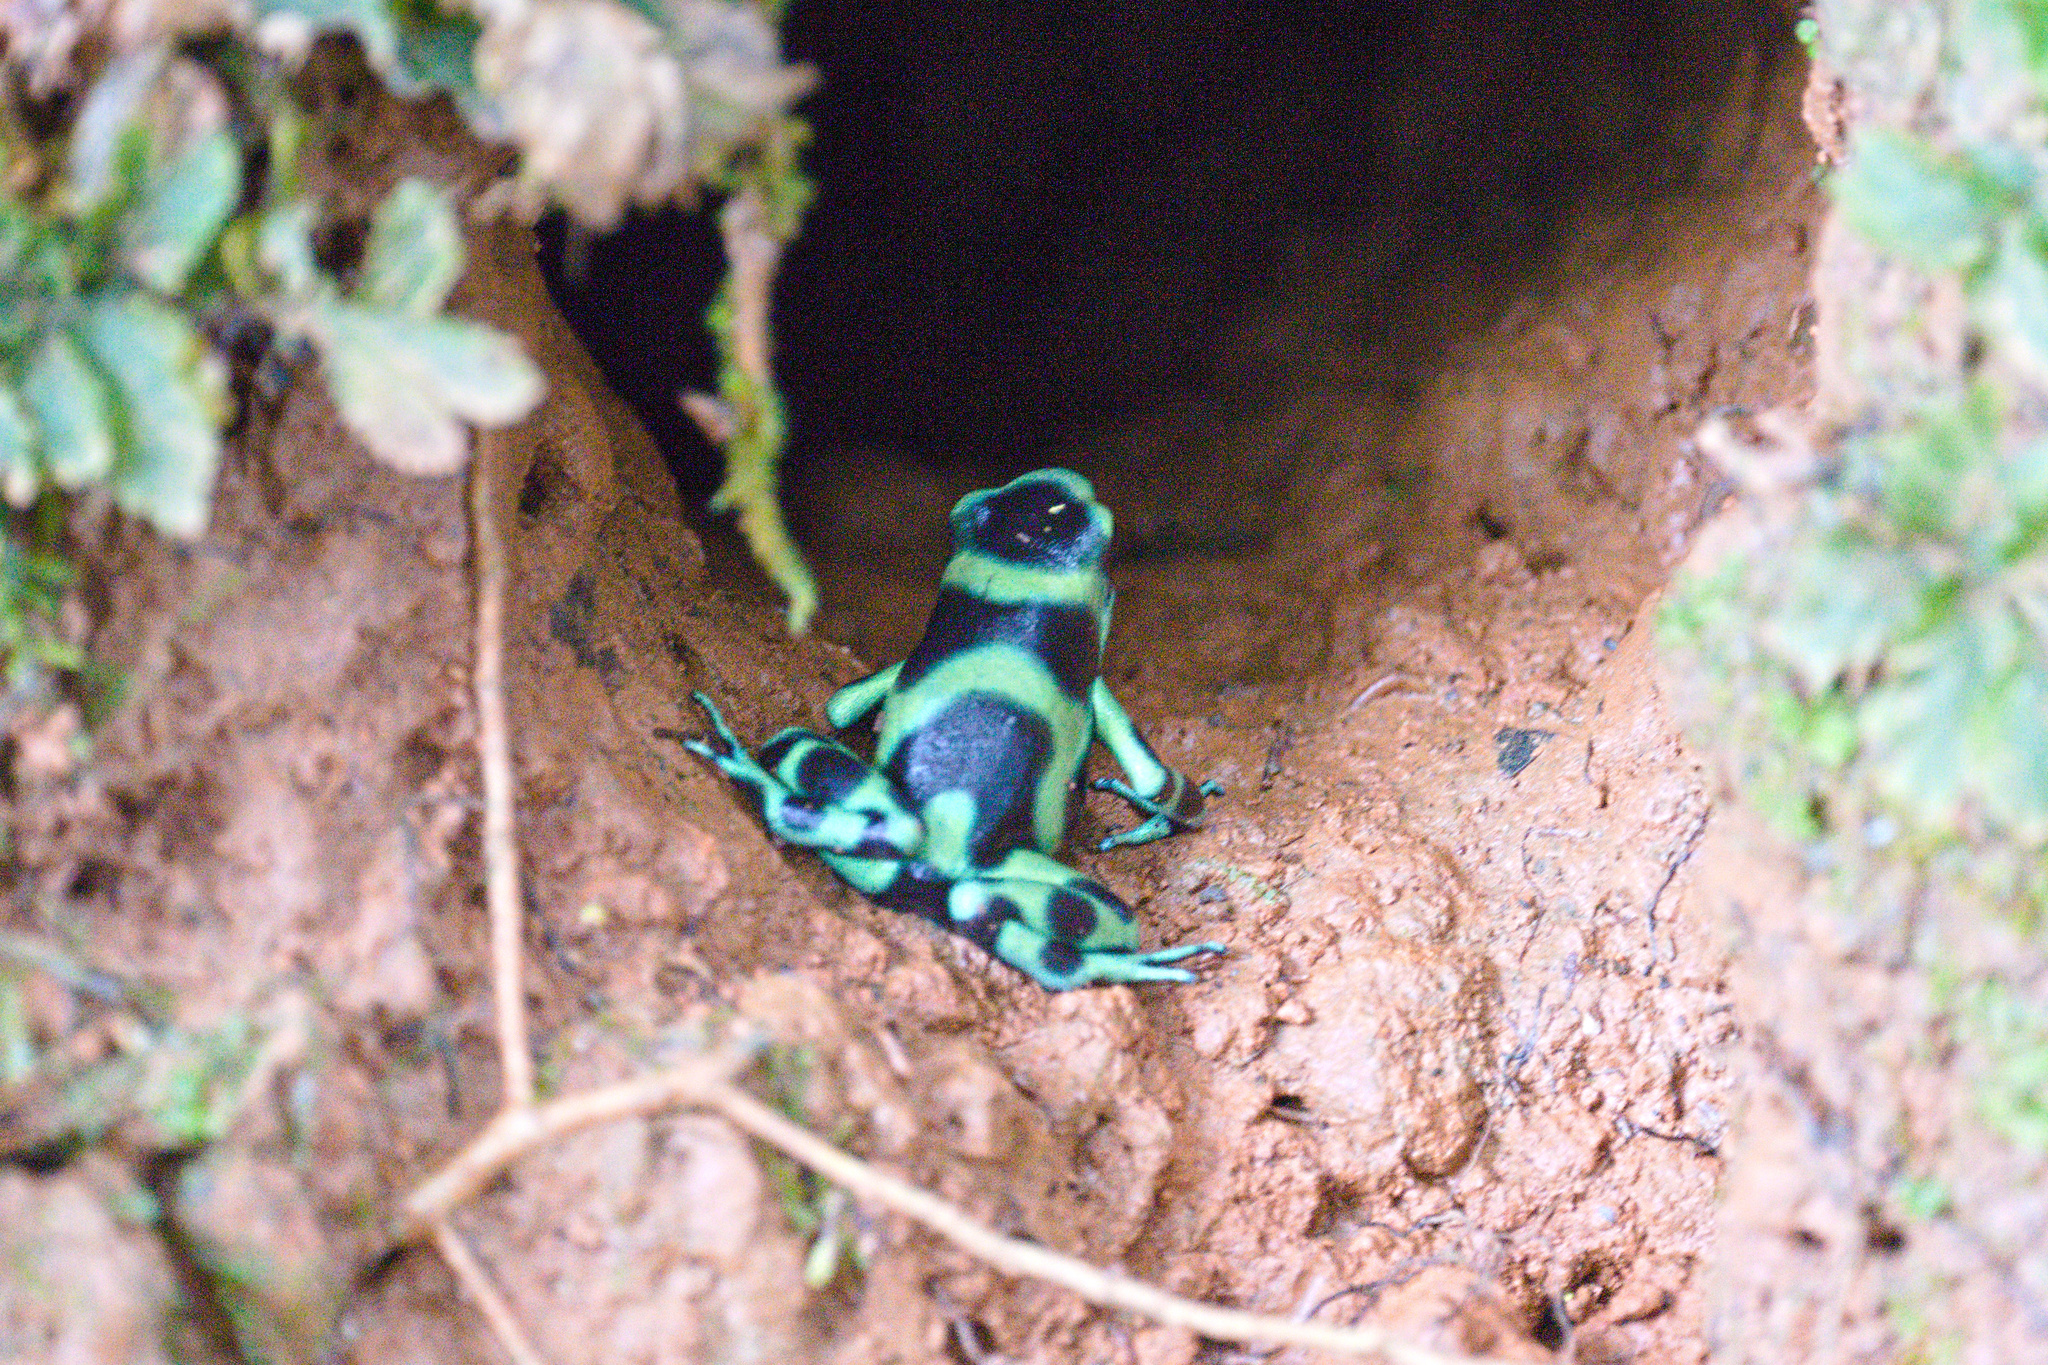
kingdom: Animalia
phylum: Chordata
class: Amphibia
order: Anura
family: Dendrobatidae
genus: Dendrobates
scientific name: Dendrobates auratus
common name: Green and black poison dart frog
